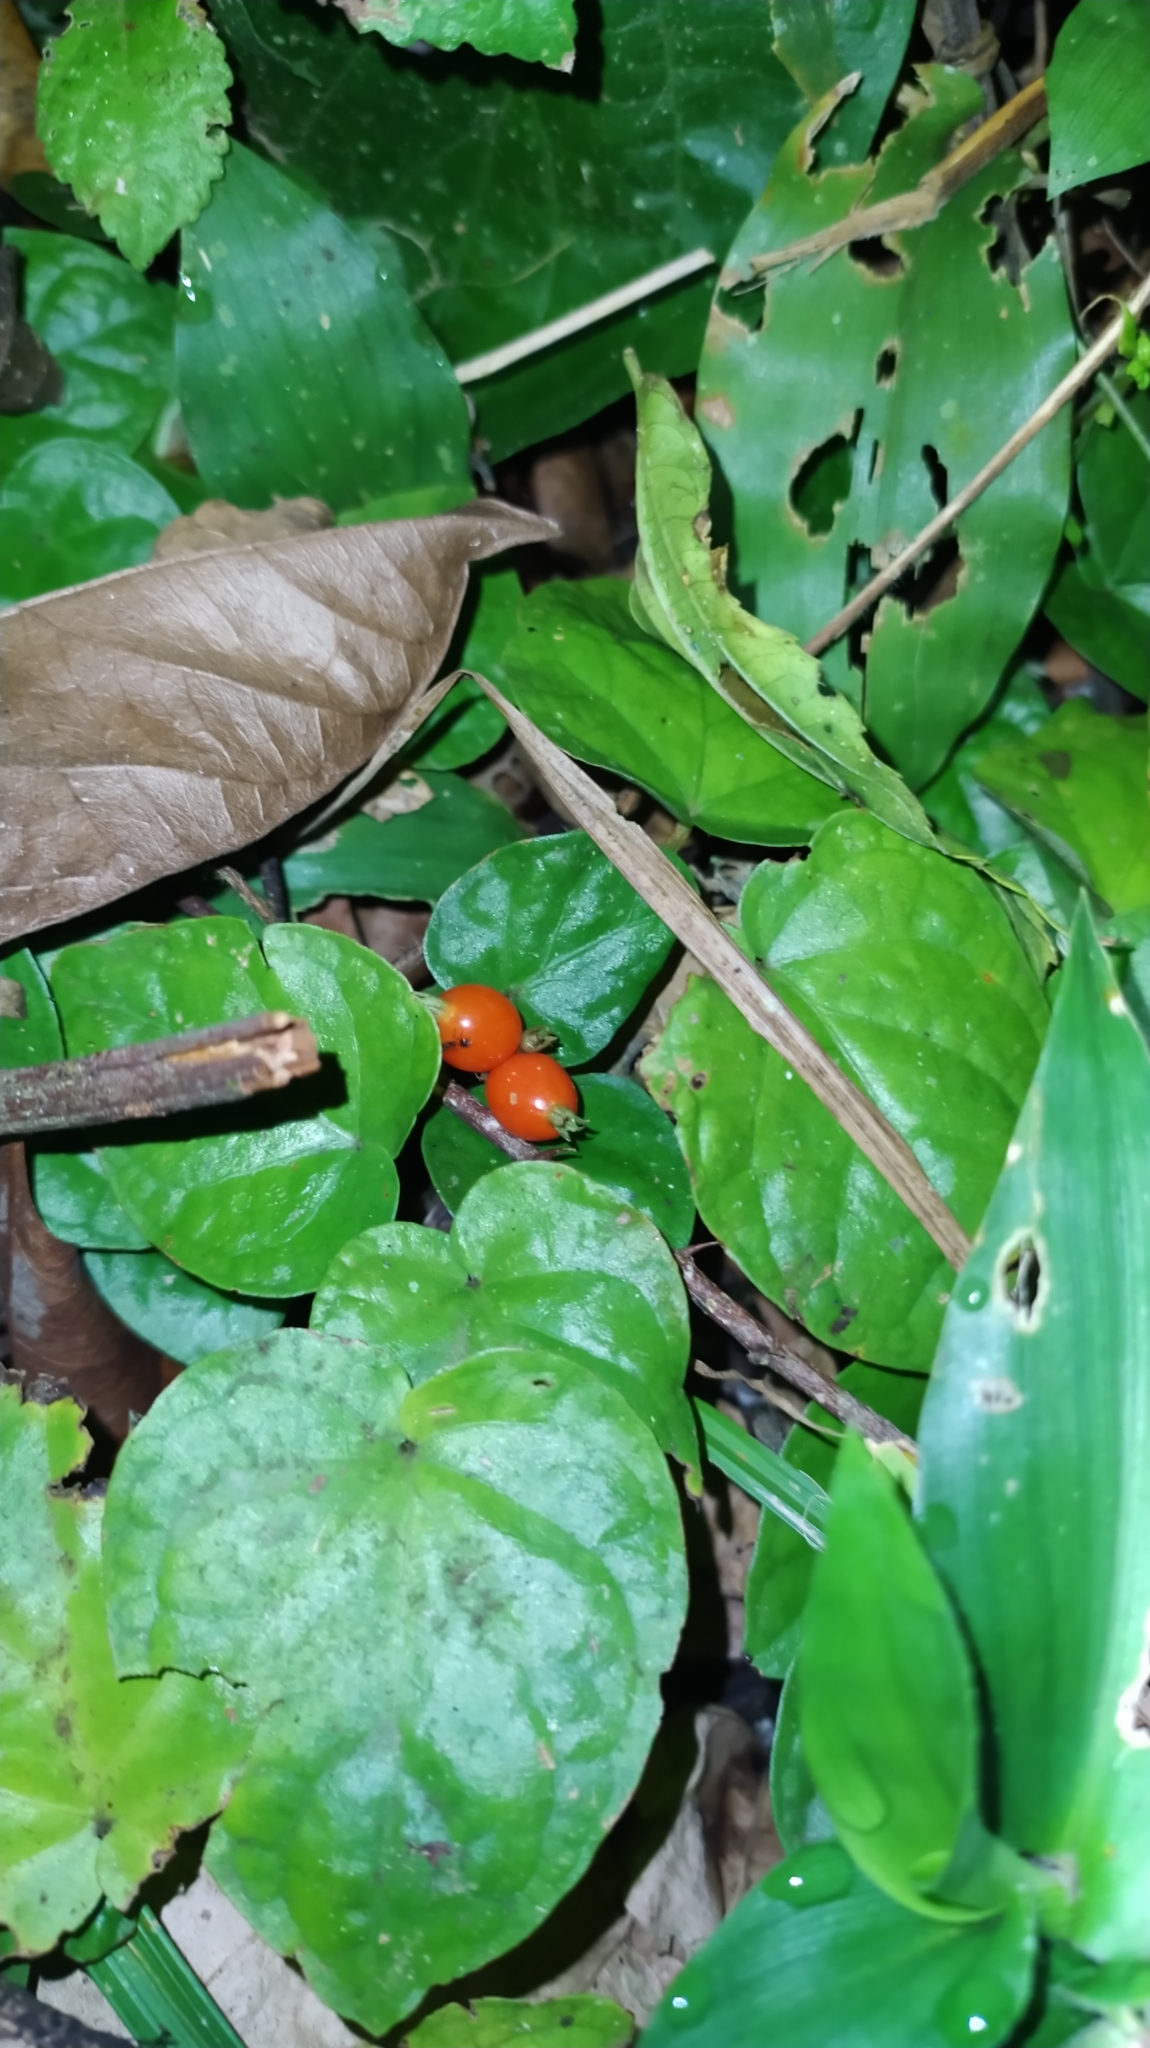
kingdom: Plantae
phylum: Tracheophyta
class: Magnoliopsida
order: Gentianales
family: Rubiaceae
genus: Geophila
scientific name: Geophila repens
